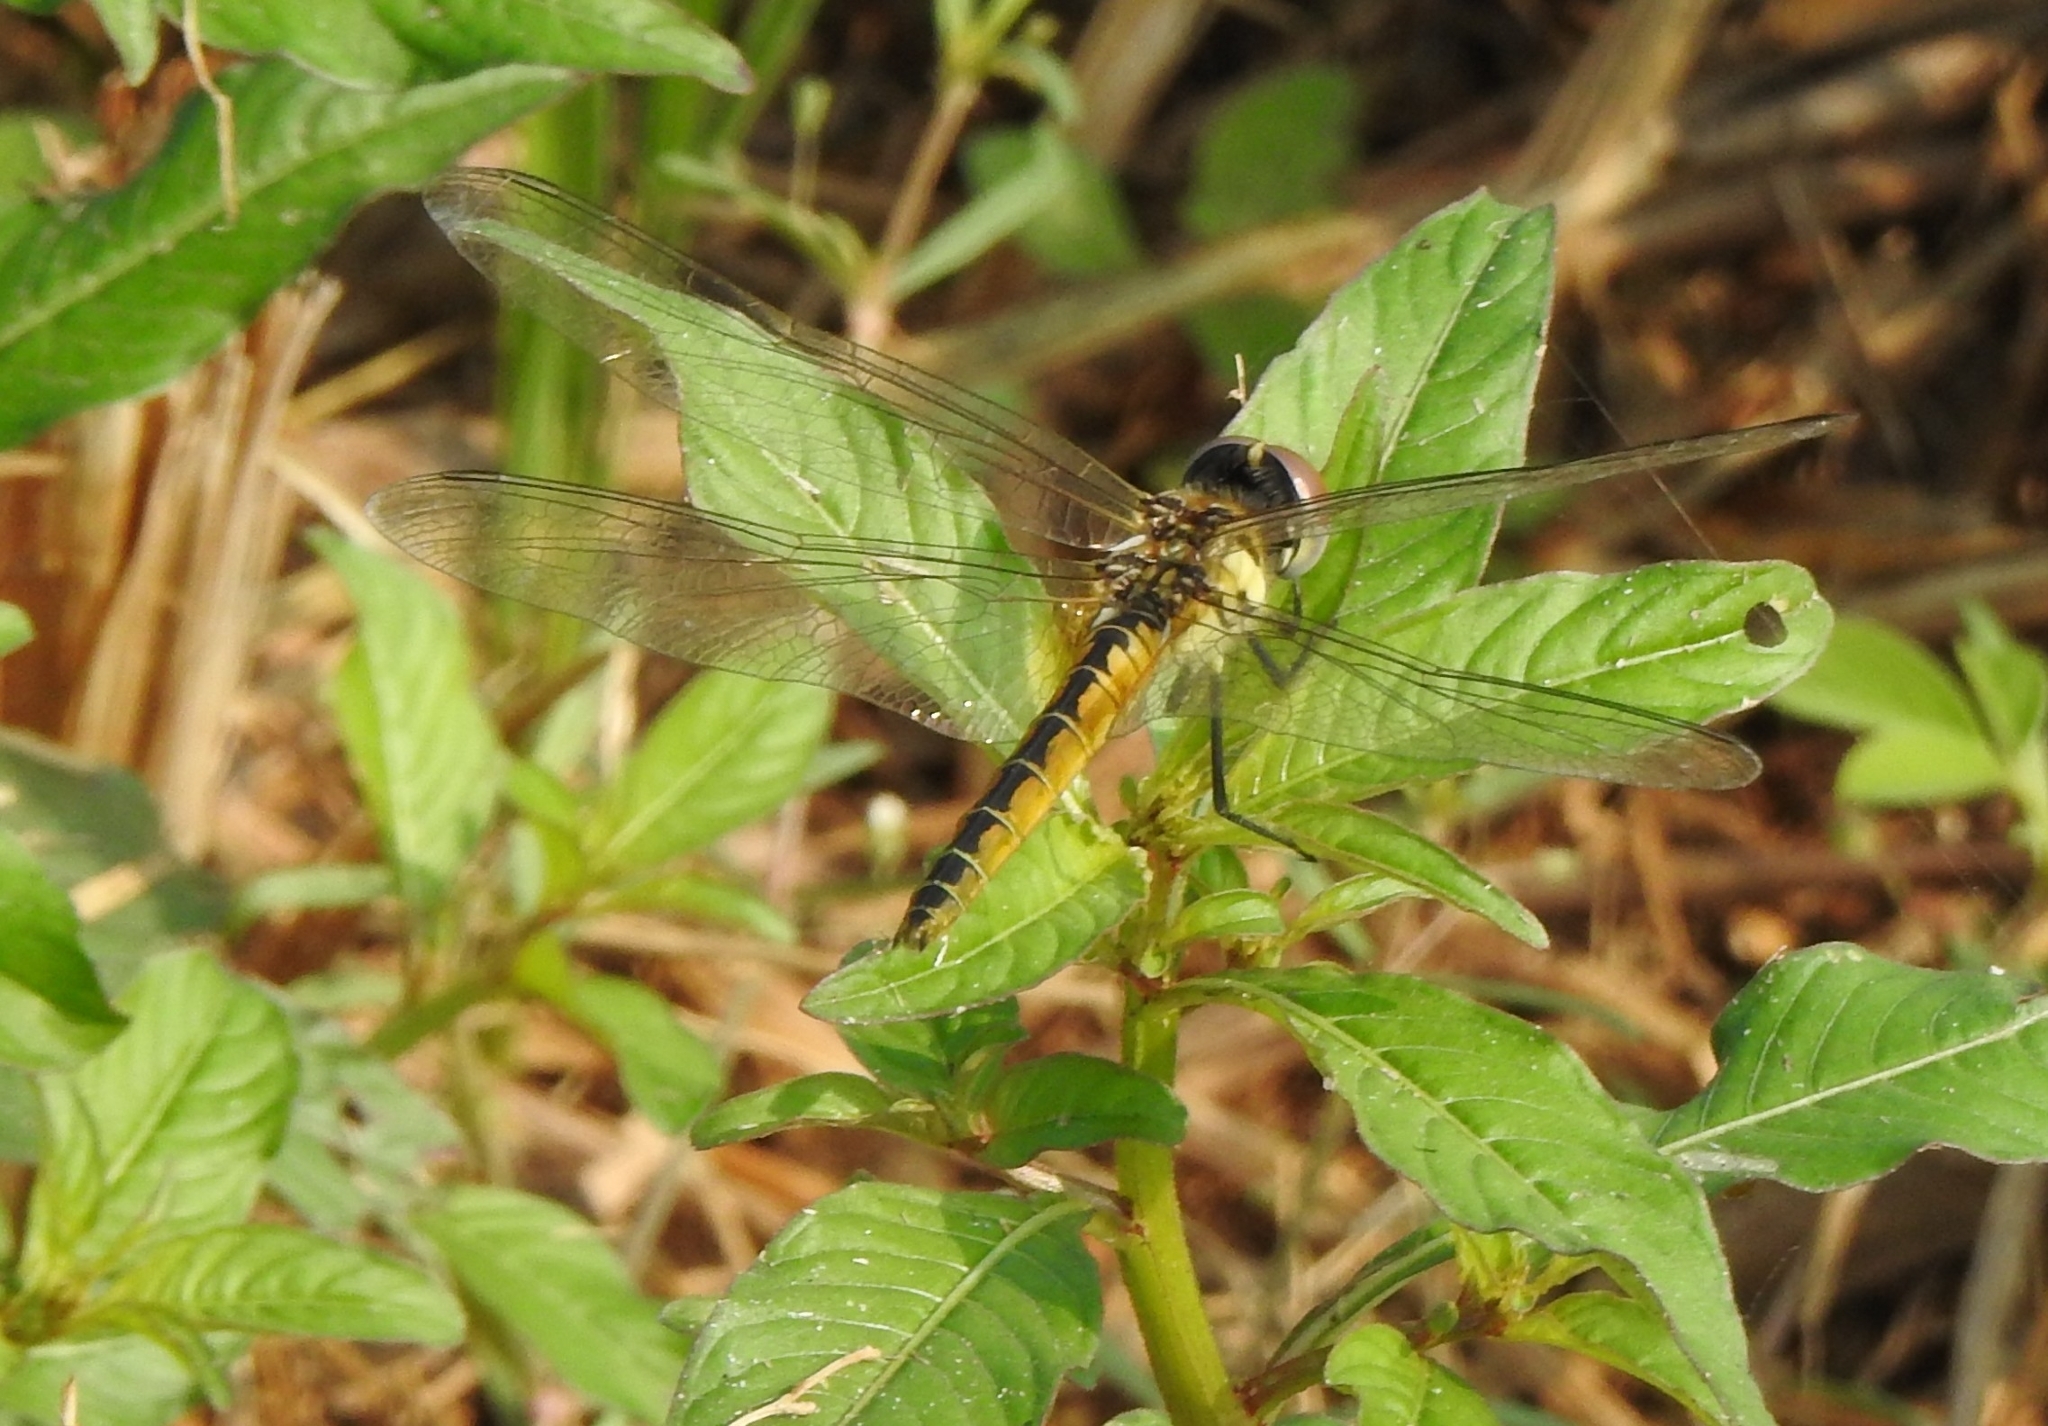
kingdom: Animalia
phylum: Arthropoda
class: Insecta
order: Odonata
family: Libellulidae
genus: Macrodiplax
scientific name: Macrodiplax cora
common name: Coastal glider
